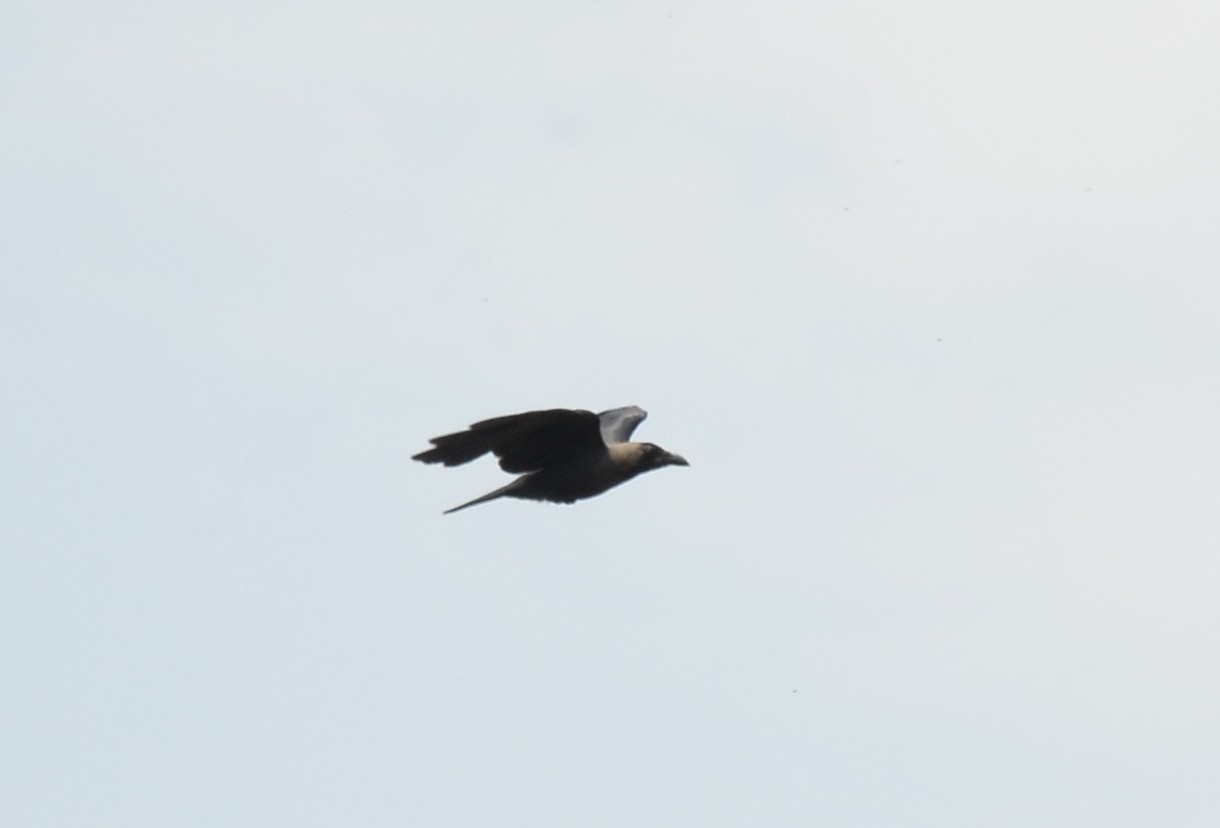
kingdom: Animalia
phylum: Chordata
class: Aves
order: Passeriformes
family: Corvidae
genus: Corvus
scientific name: Corvus splendens
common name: House crow
